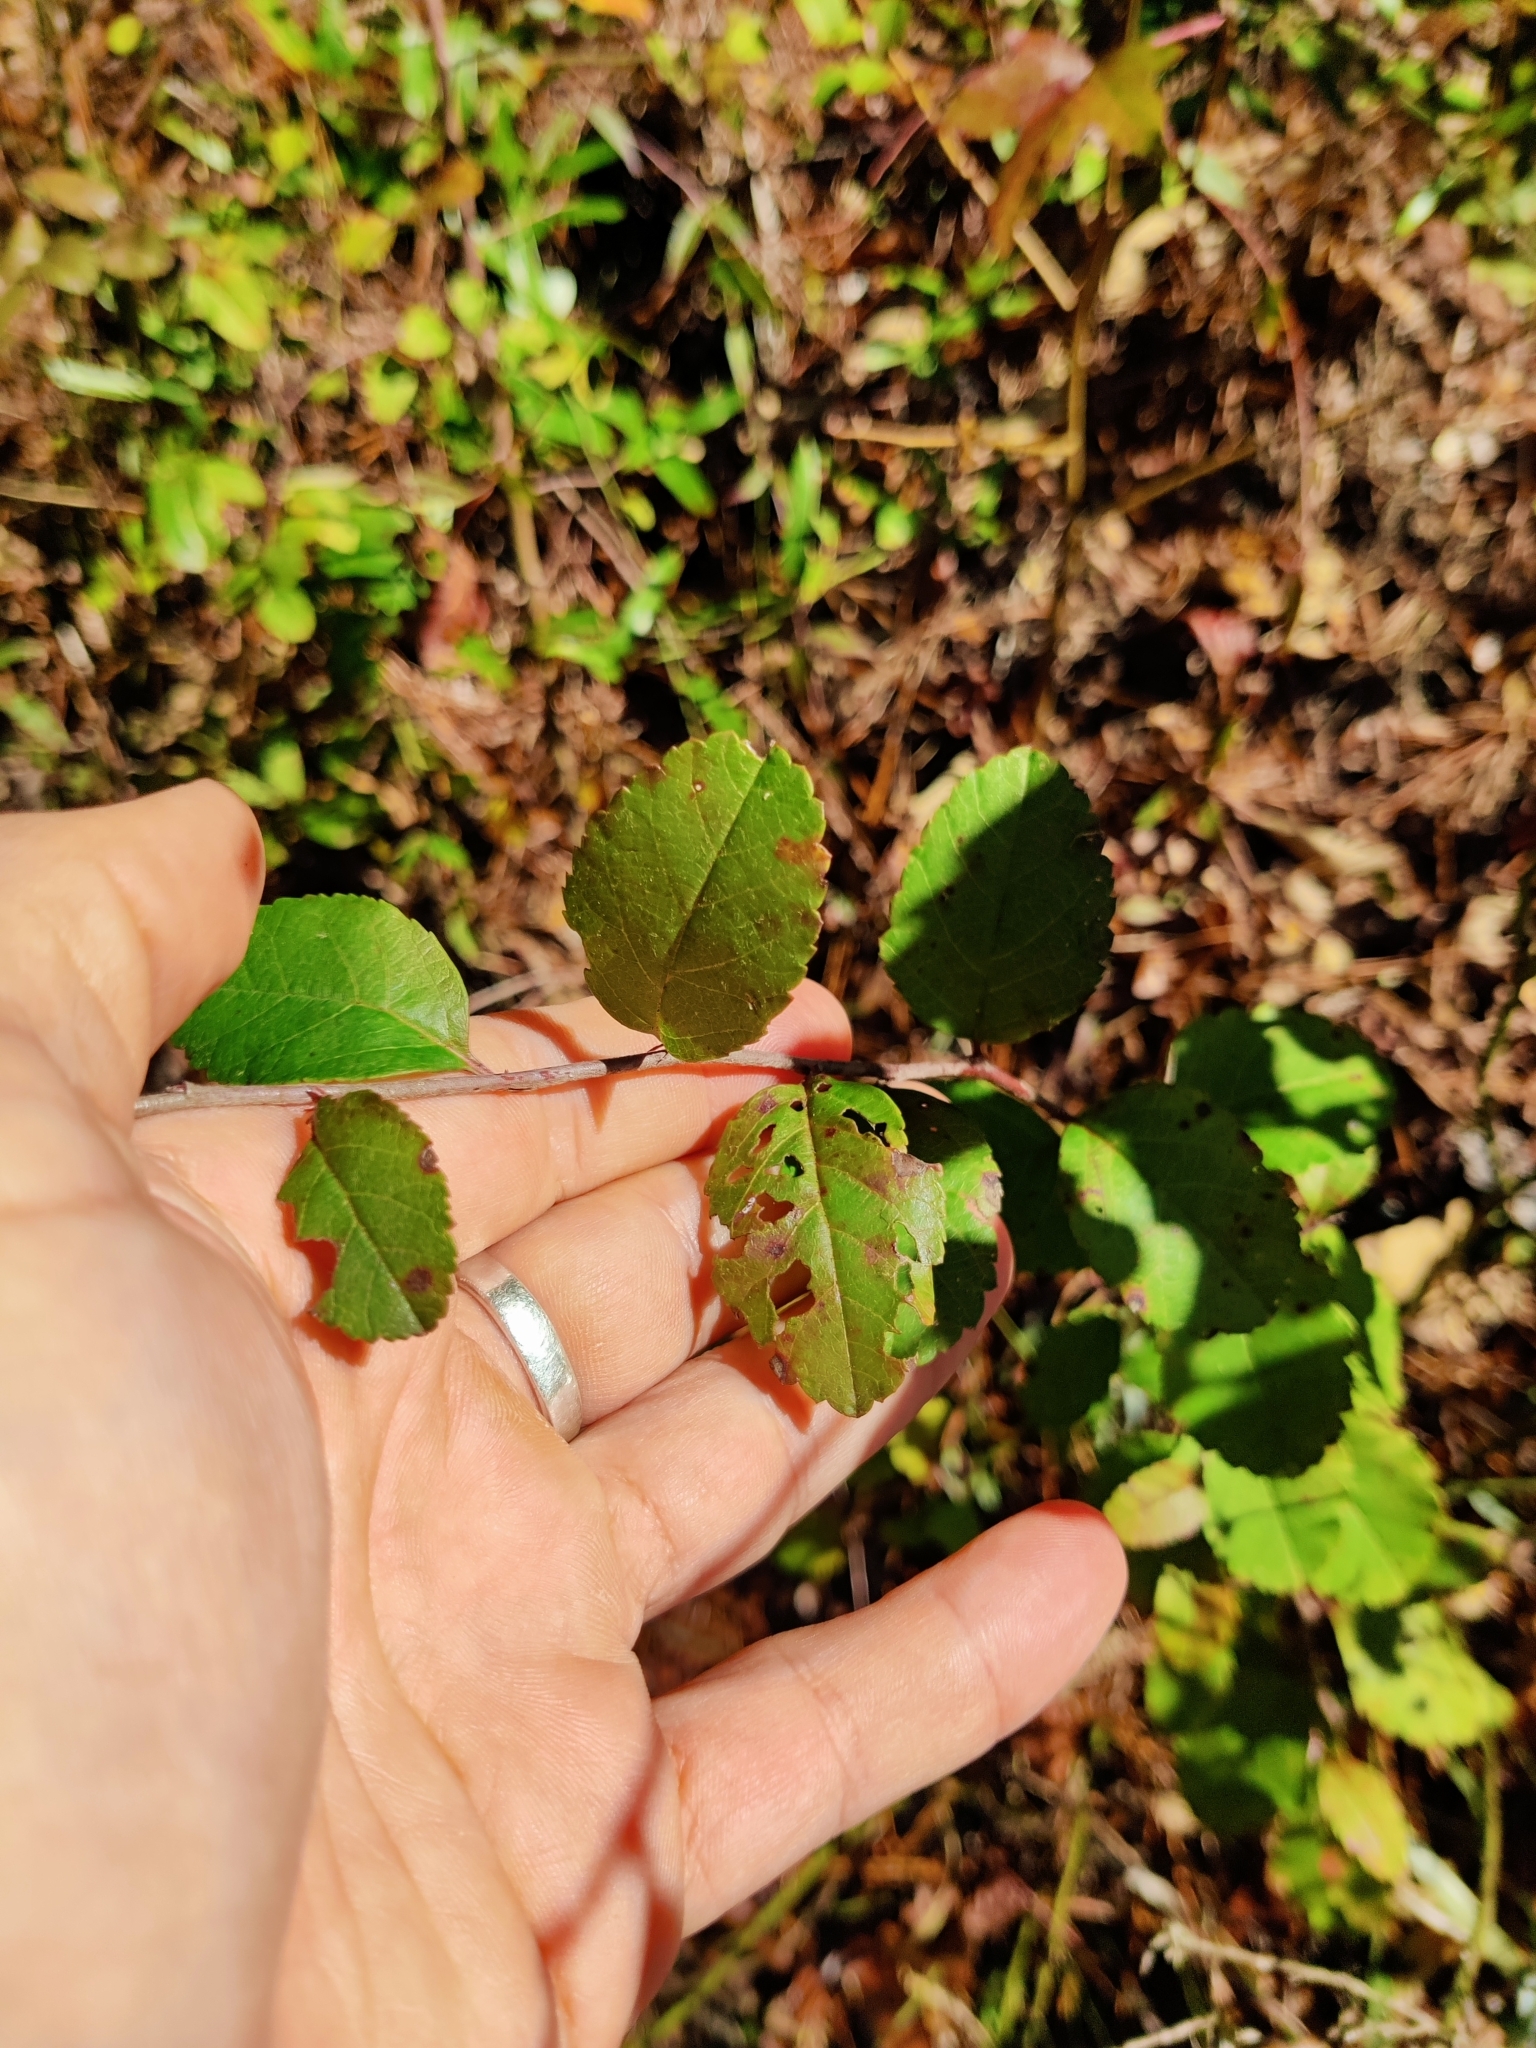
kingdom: Plantae
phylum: Tracheophyta
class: Magnoliopsida
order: Rosales
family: Rosaceae
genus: Malus
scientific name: Malus angustifolia
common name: Southern crab apple
